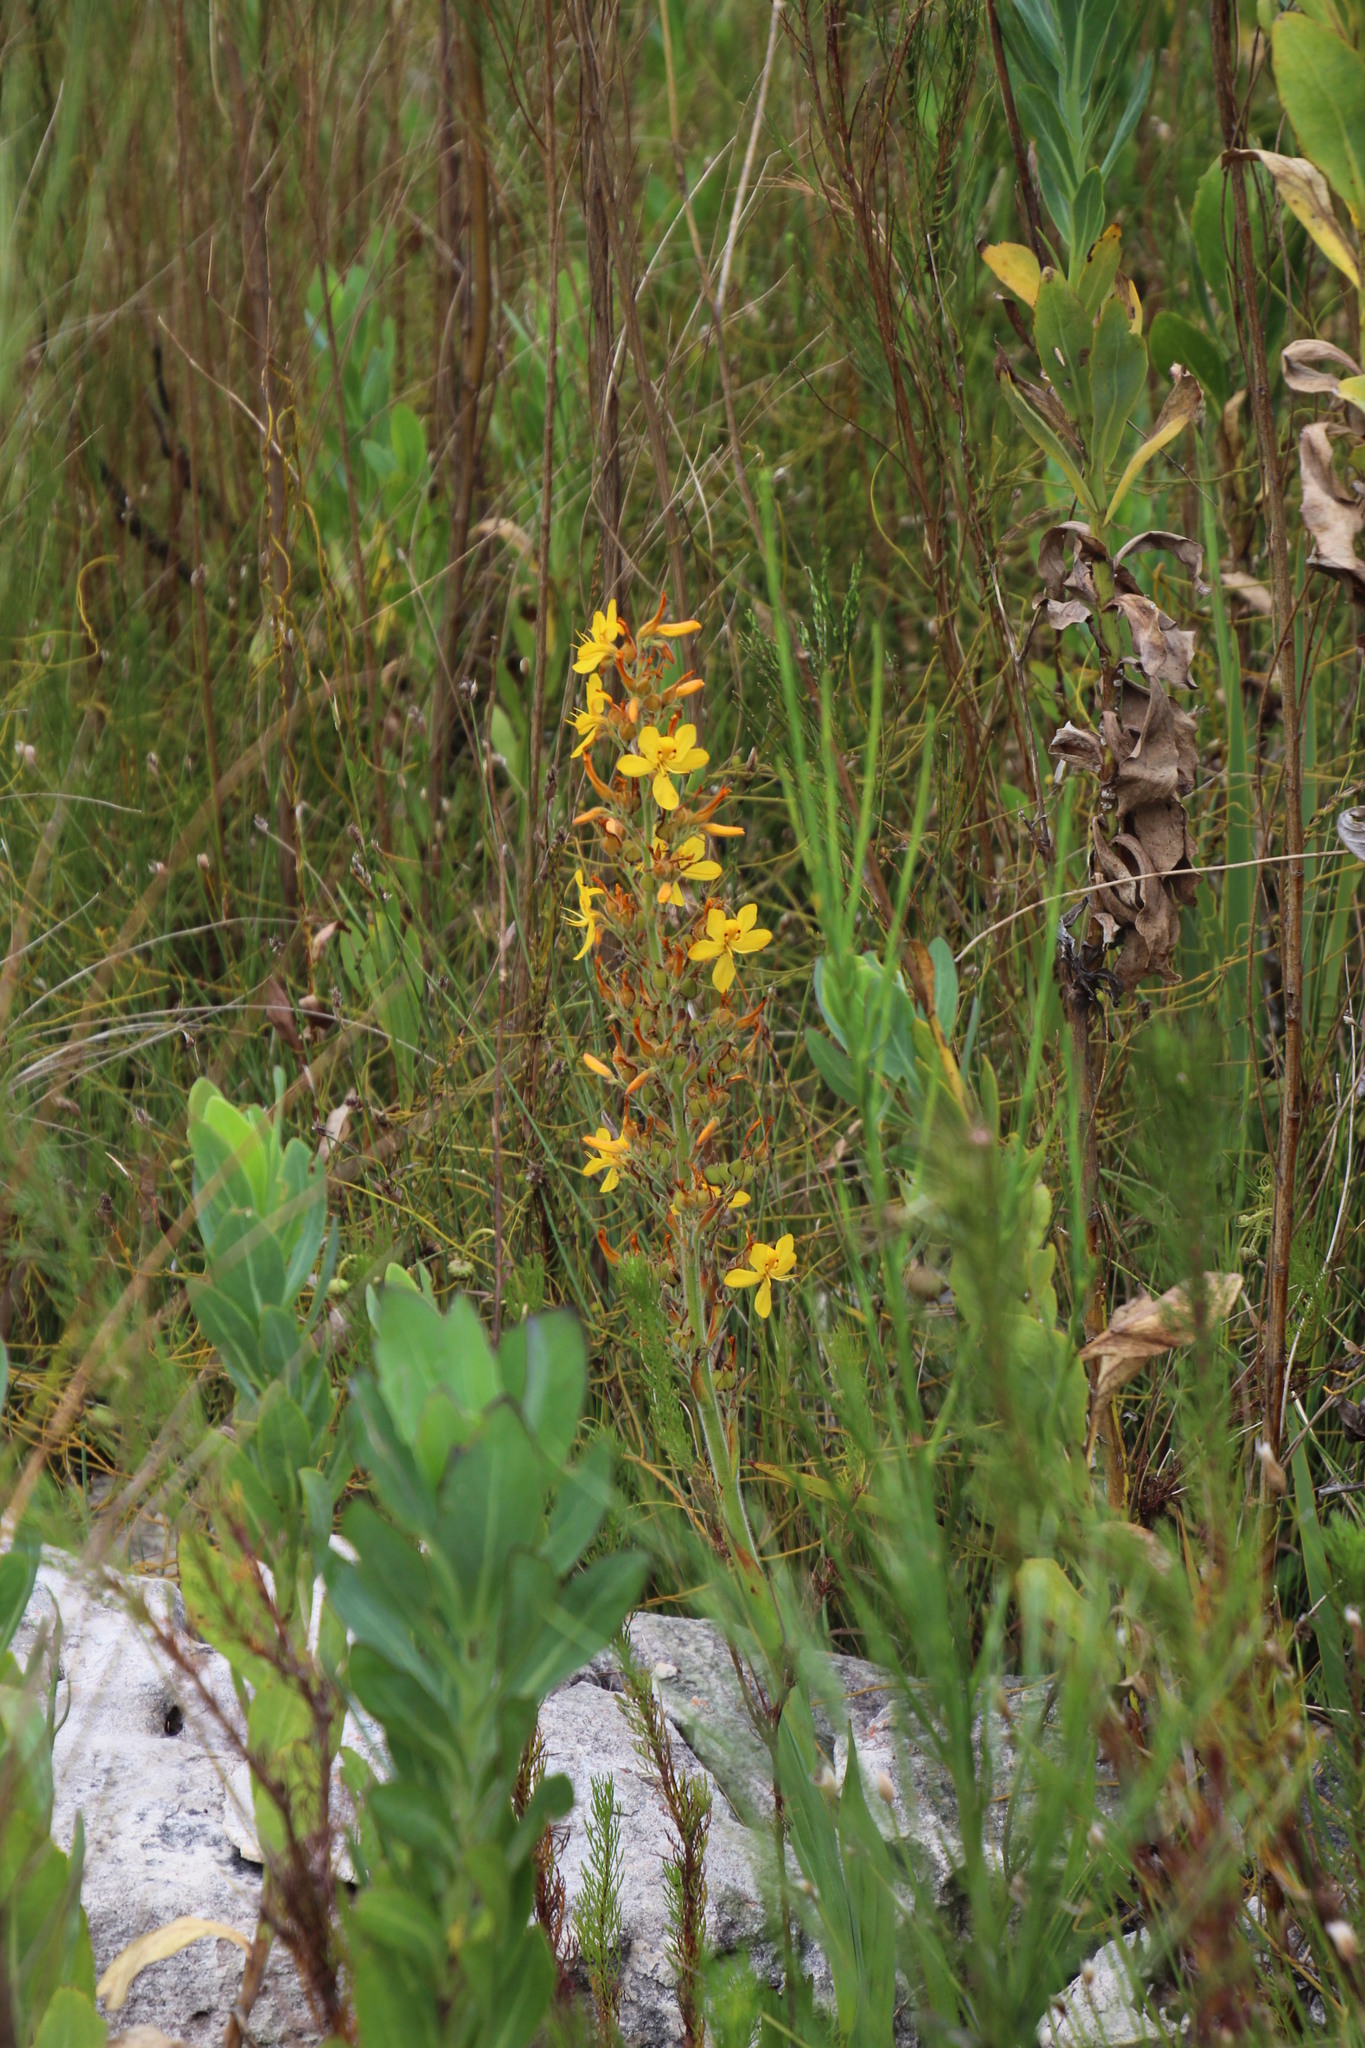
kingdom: Plantae
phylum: Tracheophyta
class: Liliopsida
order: Commelinales
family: Haemodoraceae
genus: Wachendorfia
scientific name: Wachendorfia thyrsiflora
